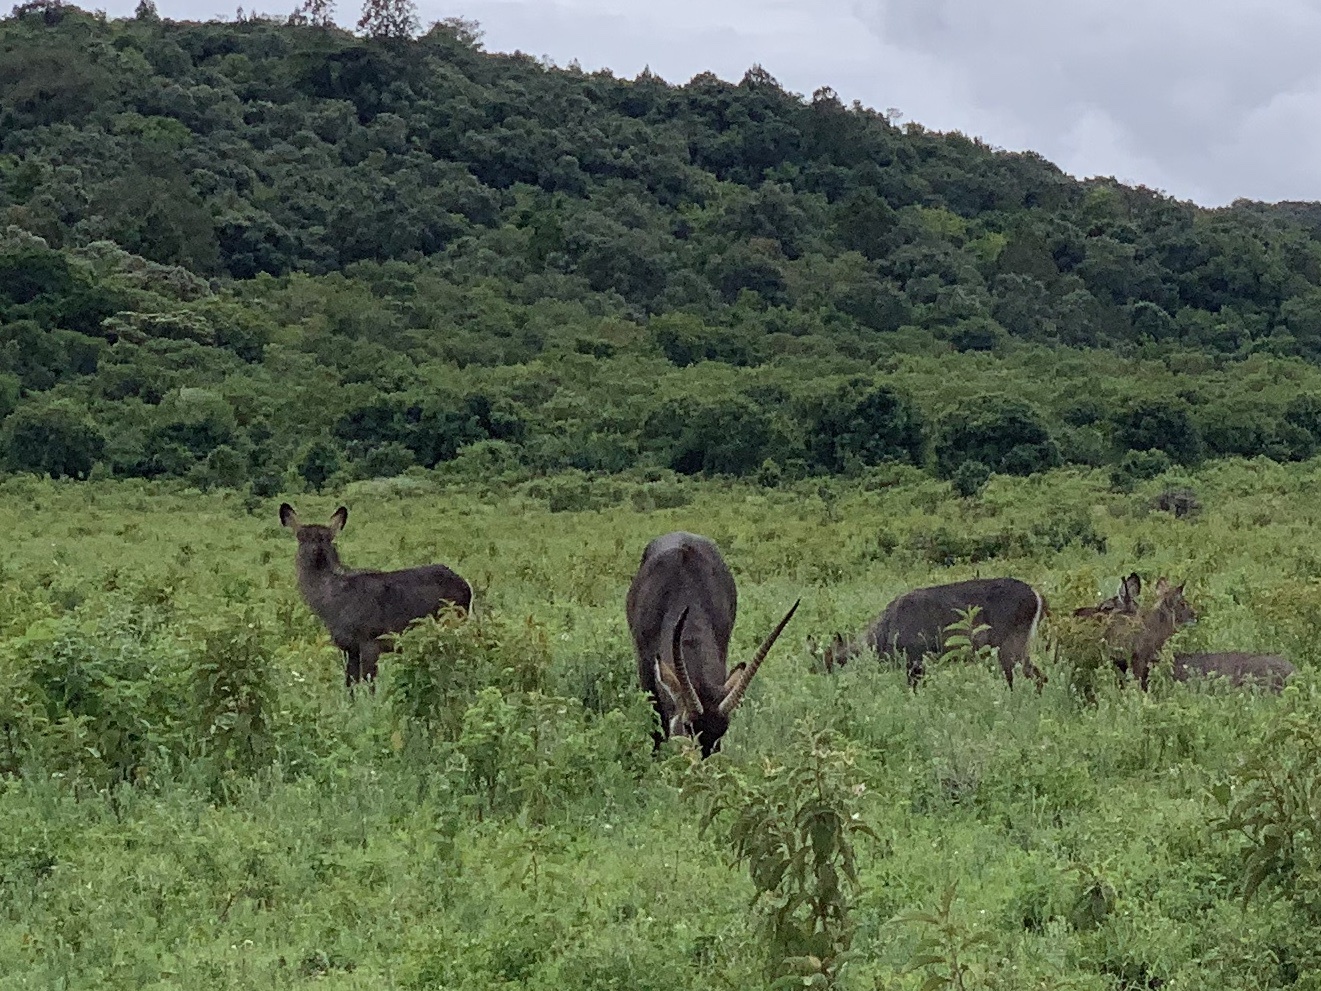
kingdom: Animalia
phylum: Chordata
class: Mammalia
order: Artiodactyla
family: Bovidae
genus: Kobus
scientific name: Kobus ellipsiprymnus
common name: Waterbuck
